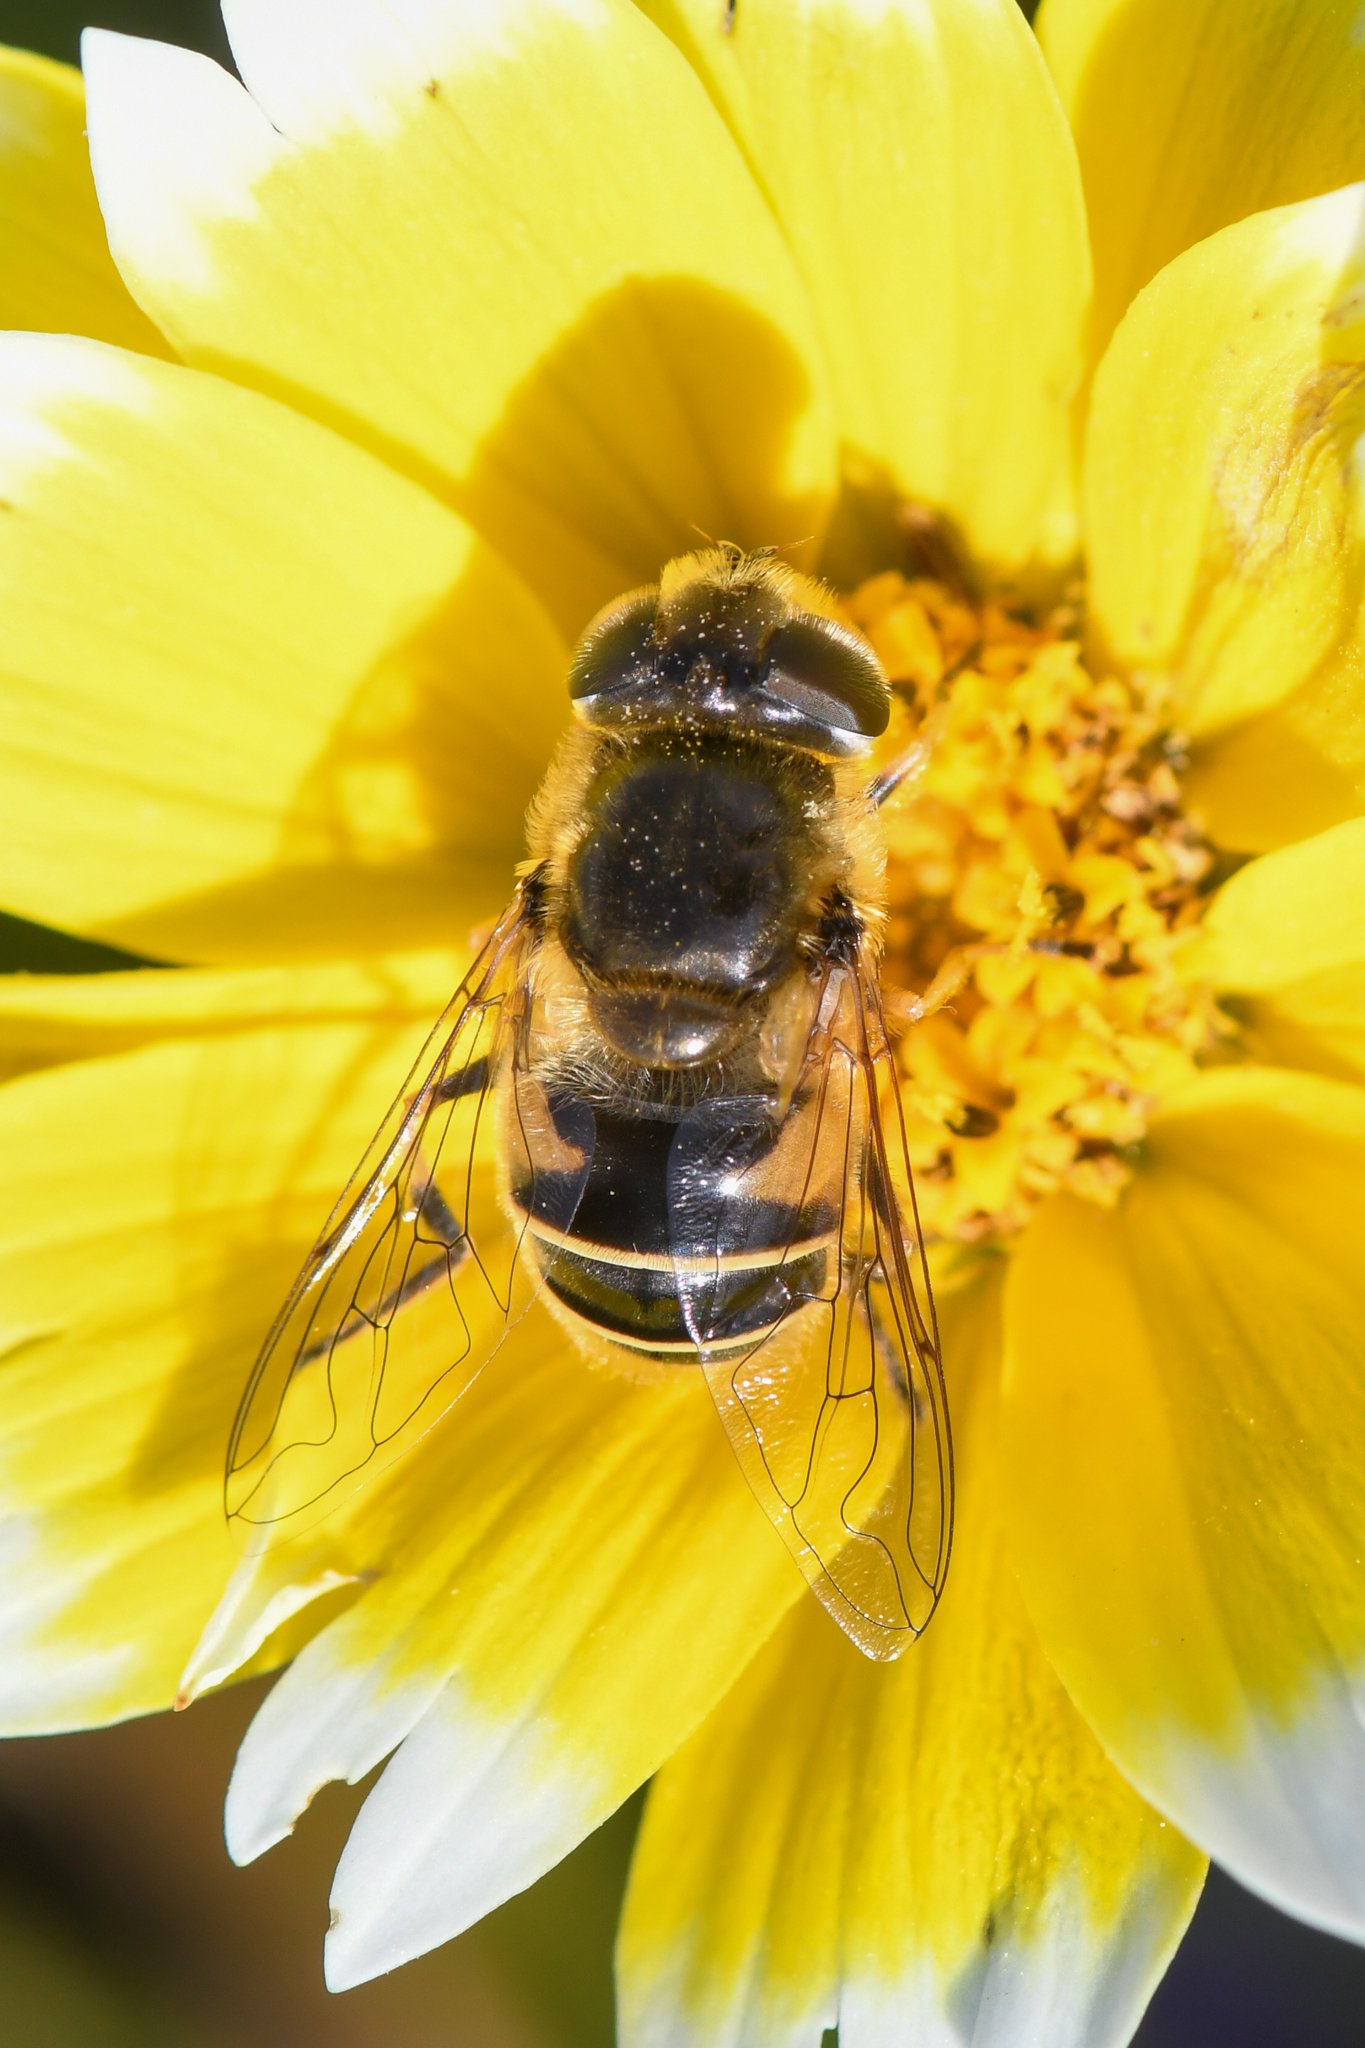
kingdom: Animalia
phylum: Arthropoda
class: Insecta
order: Diptera
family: Syrphidae
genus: Eristalis
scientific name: Eristalis hirta
